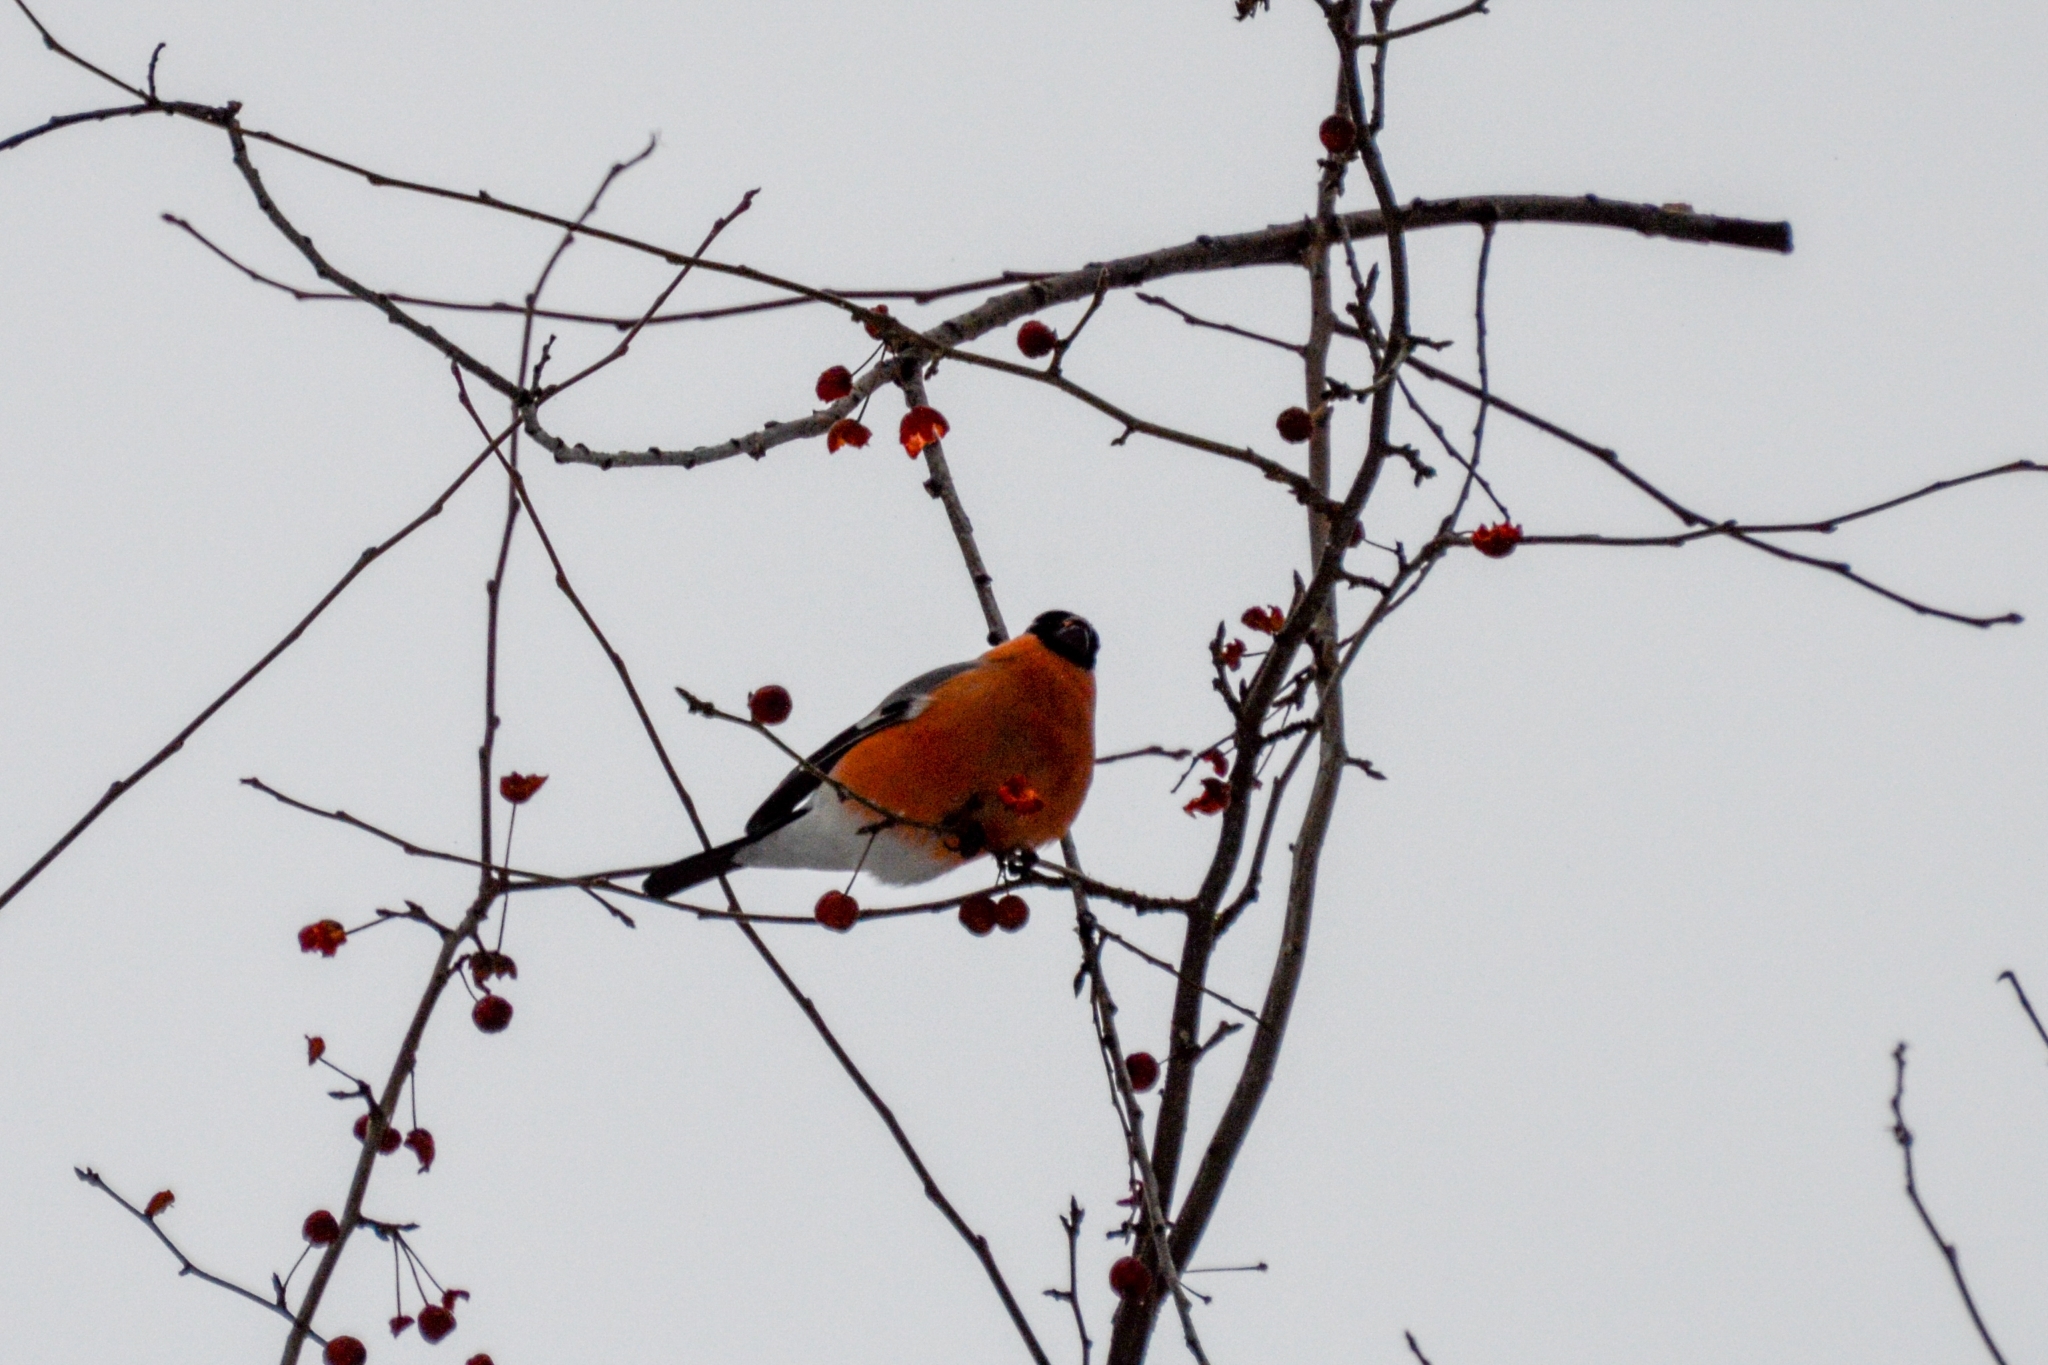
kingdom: Animalia
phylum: Chordata
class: Aves
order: Passeriformes
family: Fringillidae
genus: Pyrrhula
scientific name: Pyrrhula pyrrhula
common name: Eurasian bullfinch
